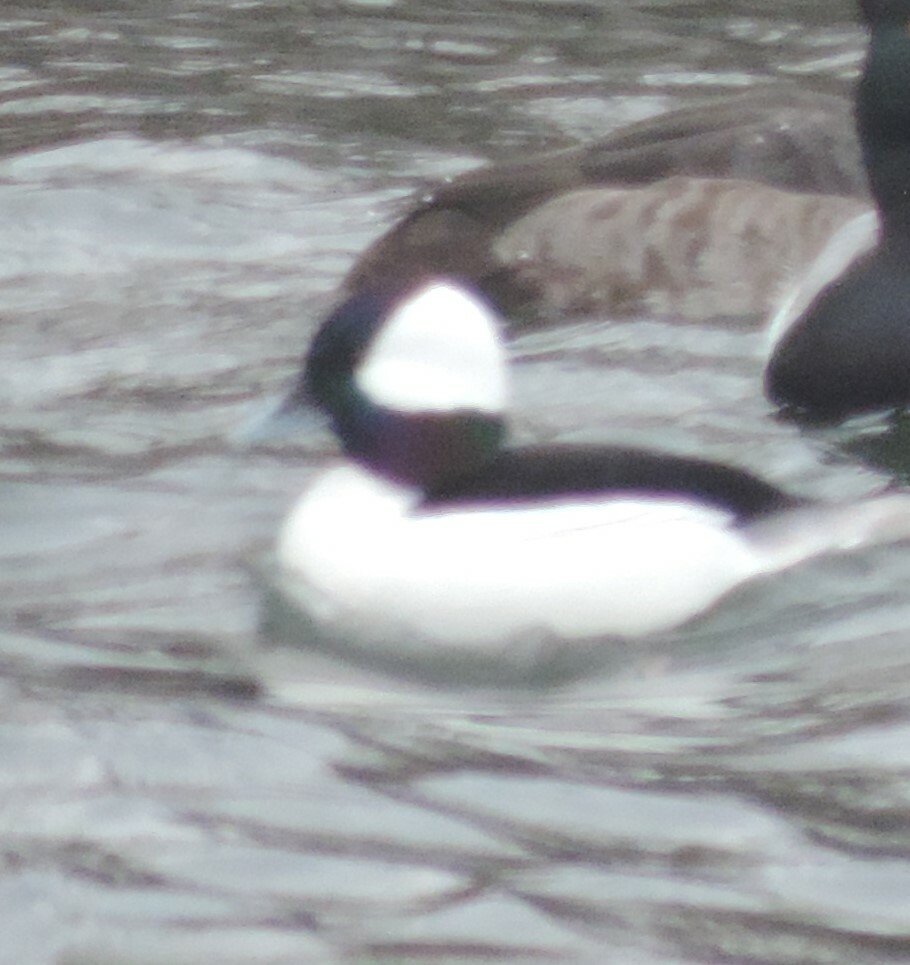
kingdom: Animalia
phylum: Chordata
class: Aves
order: Anseriformes
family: Anatidae
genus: Bucephala
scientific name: Bucephala albeola
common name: Bufflehead
